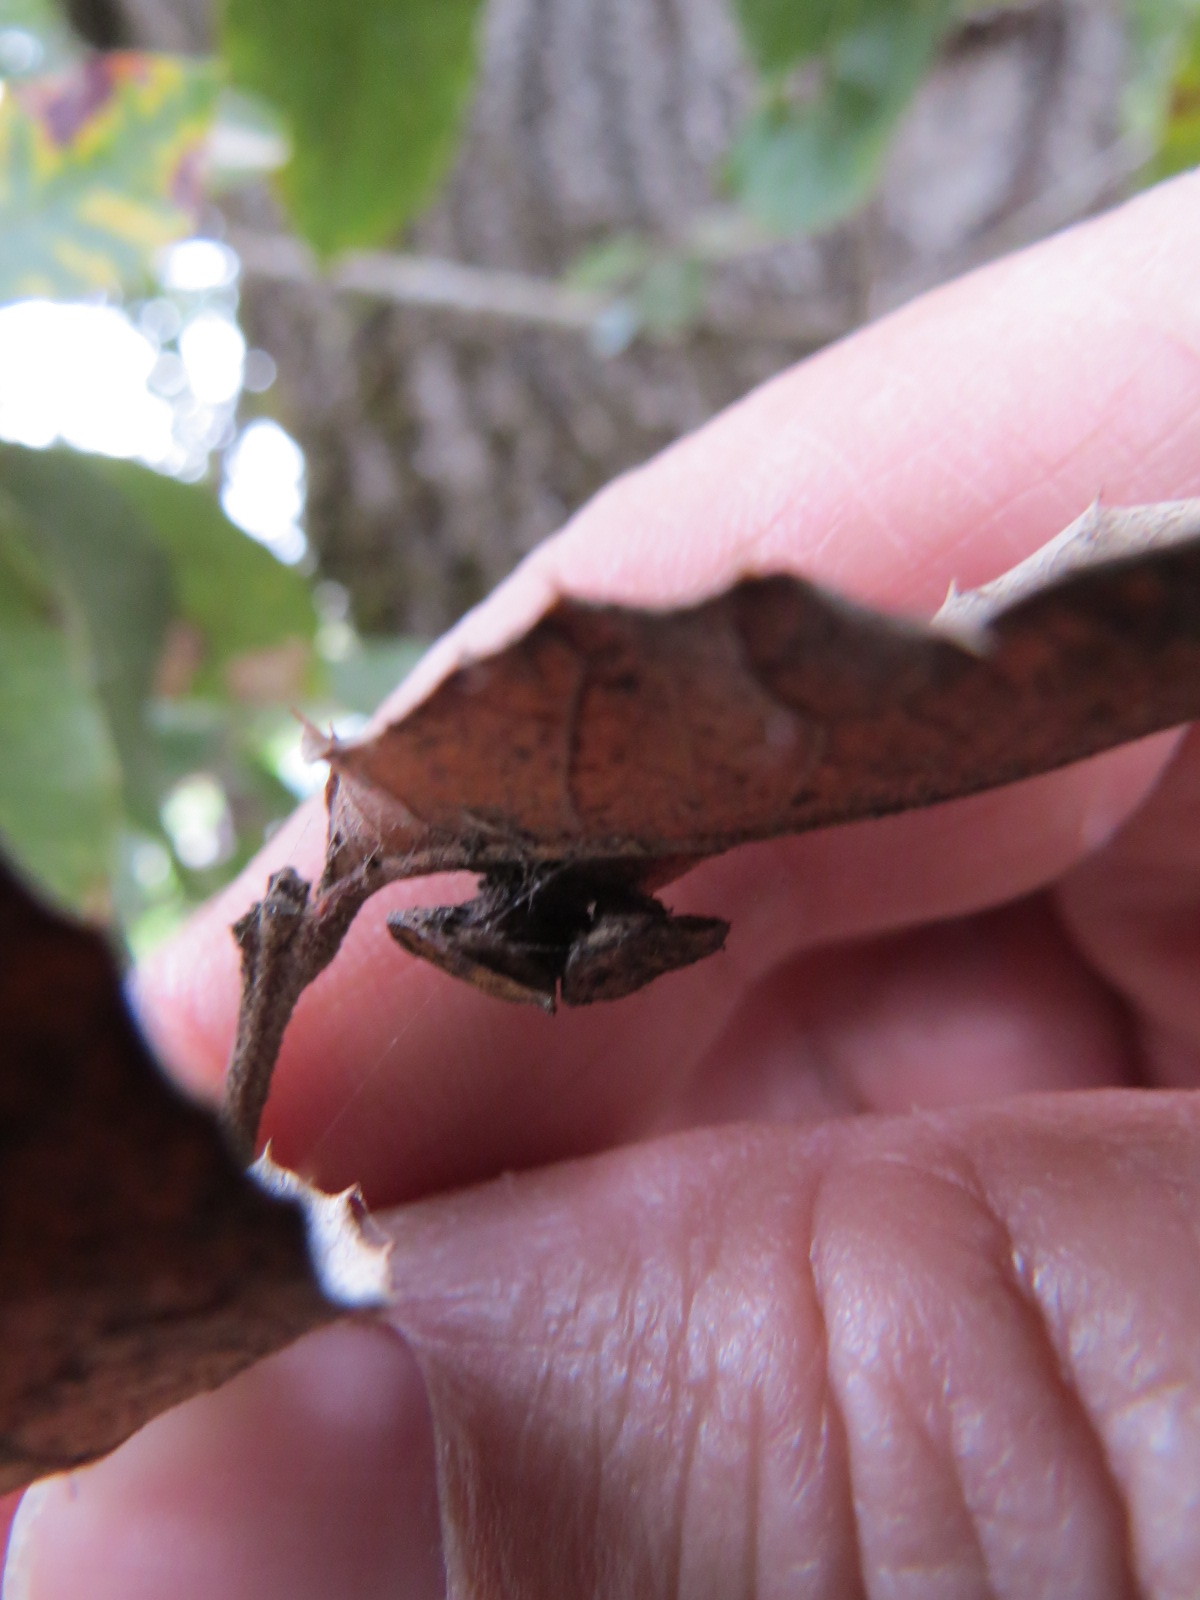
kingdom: Animalia
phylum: Arthropoda
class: Insecta
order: Hymenoptera
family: Cynipidae
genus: Amphibolips
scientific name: Amphibolips quercuspomiformis
